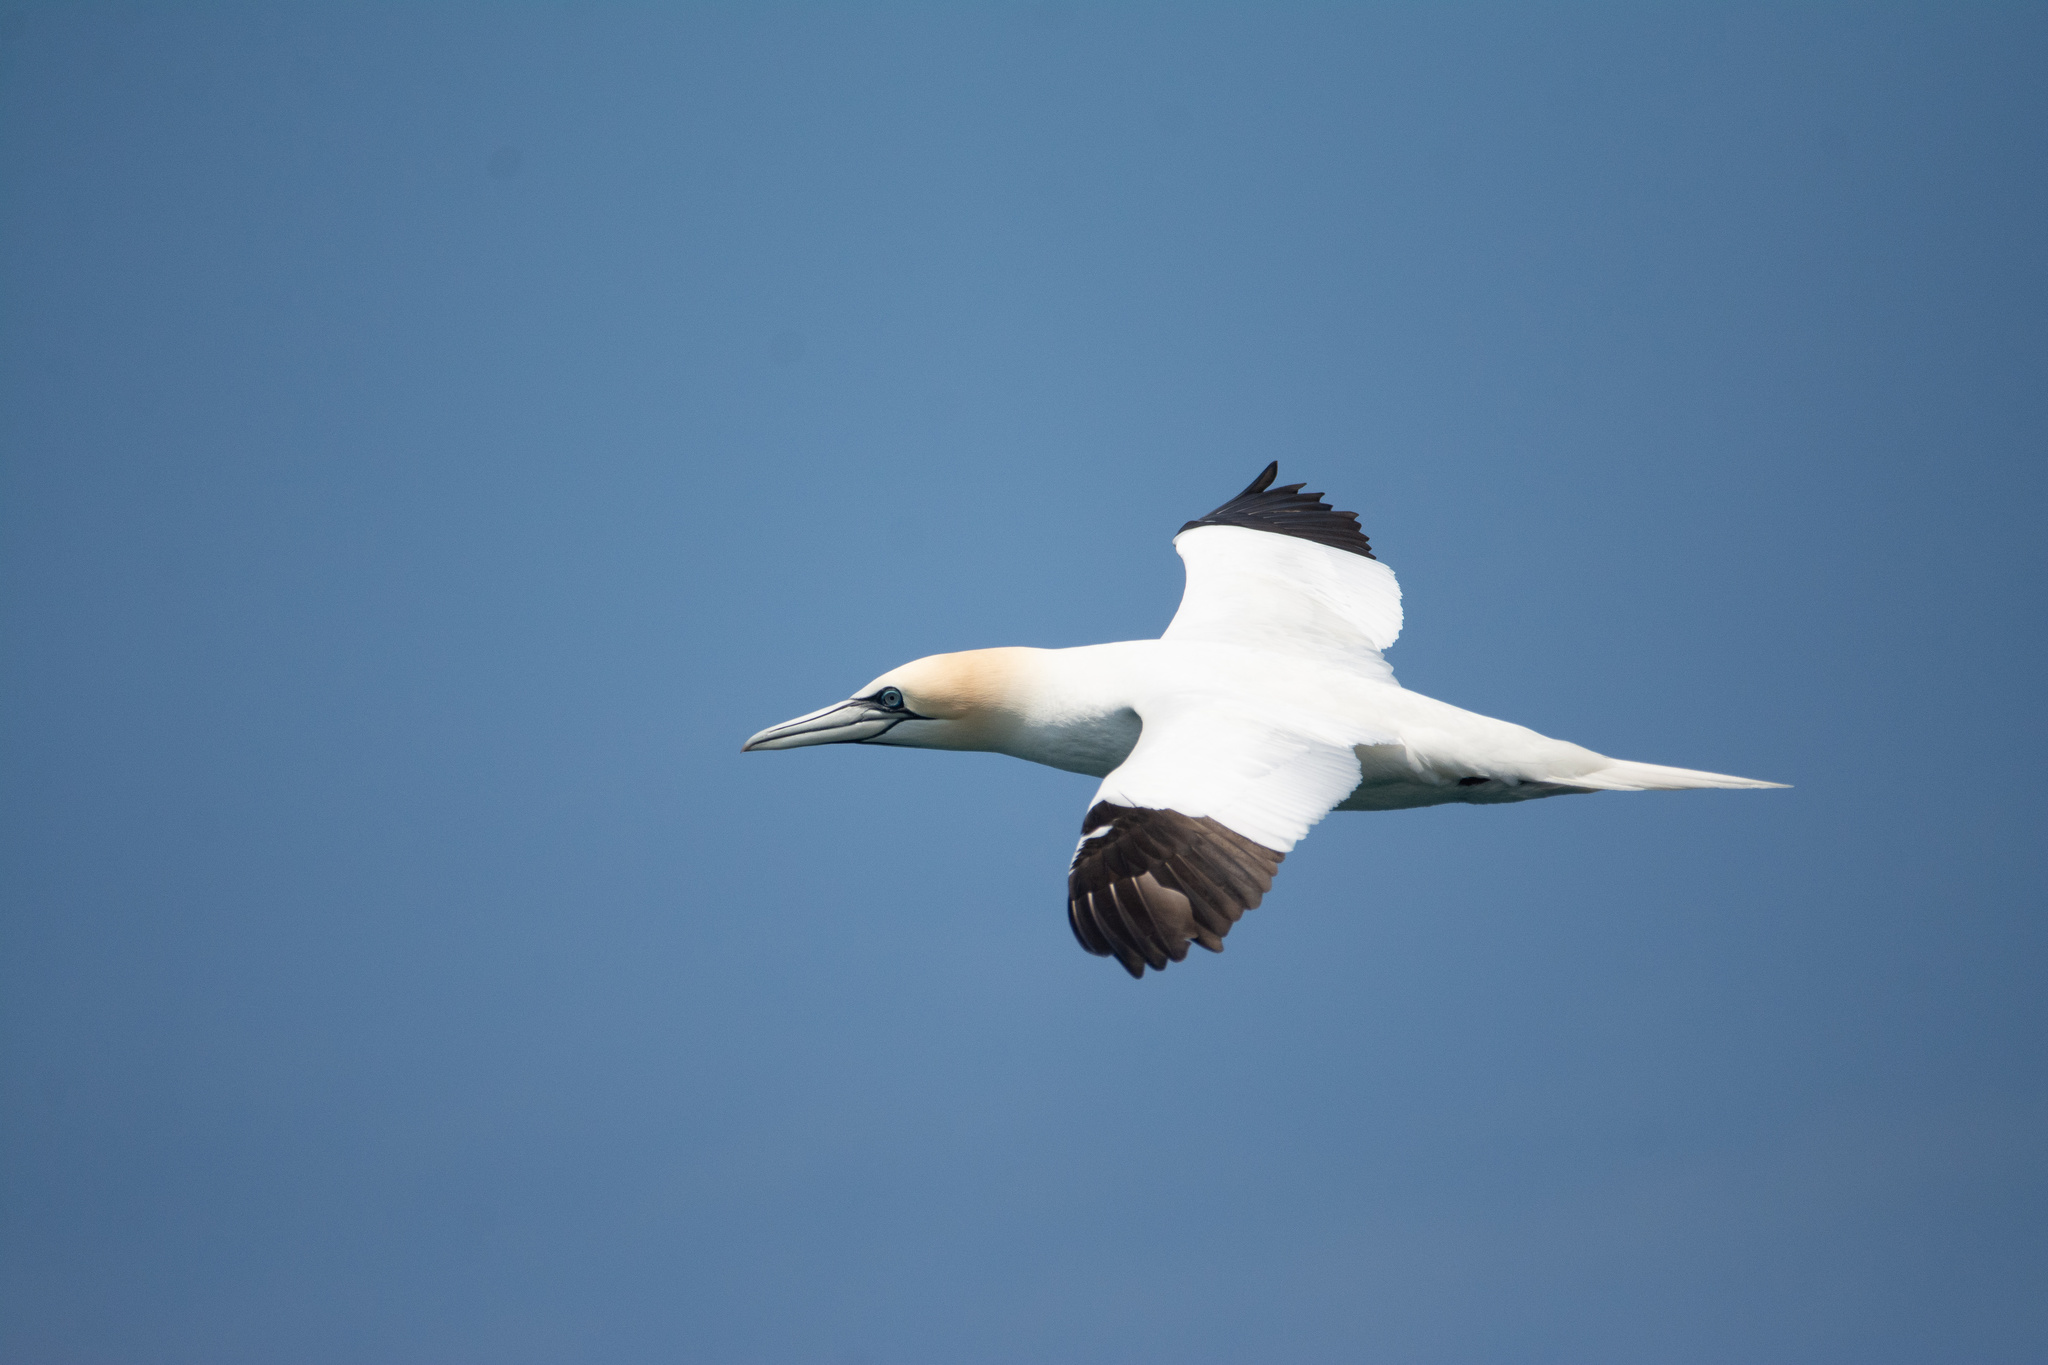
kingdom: Animalia
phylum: Chordata
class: Aves
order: Suliformes
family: Sulidae
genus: Morus
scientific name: Morus bassanus
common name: Northern gannet
